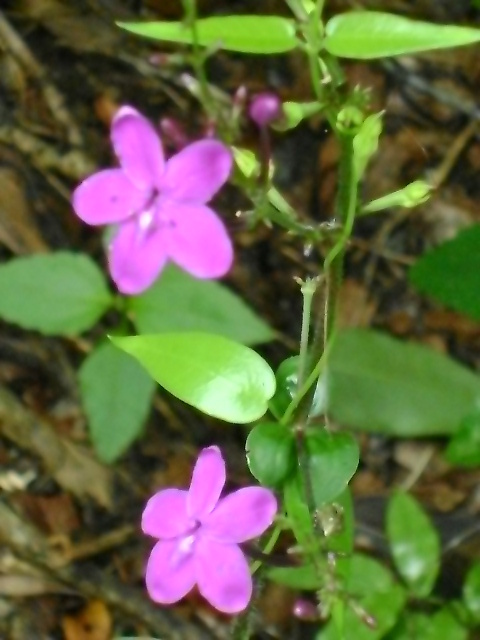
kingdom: Plantae
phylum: Tracheophyta
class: Magnoliopsida
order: Lamiales
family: Acanthaceae
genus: Pseuderanthemum
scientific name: Pseuderanthemum alatum
